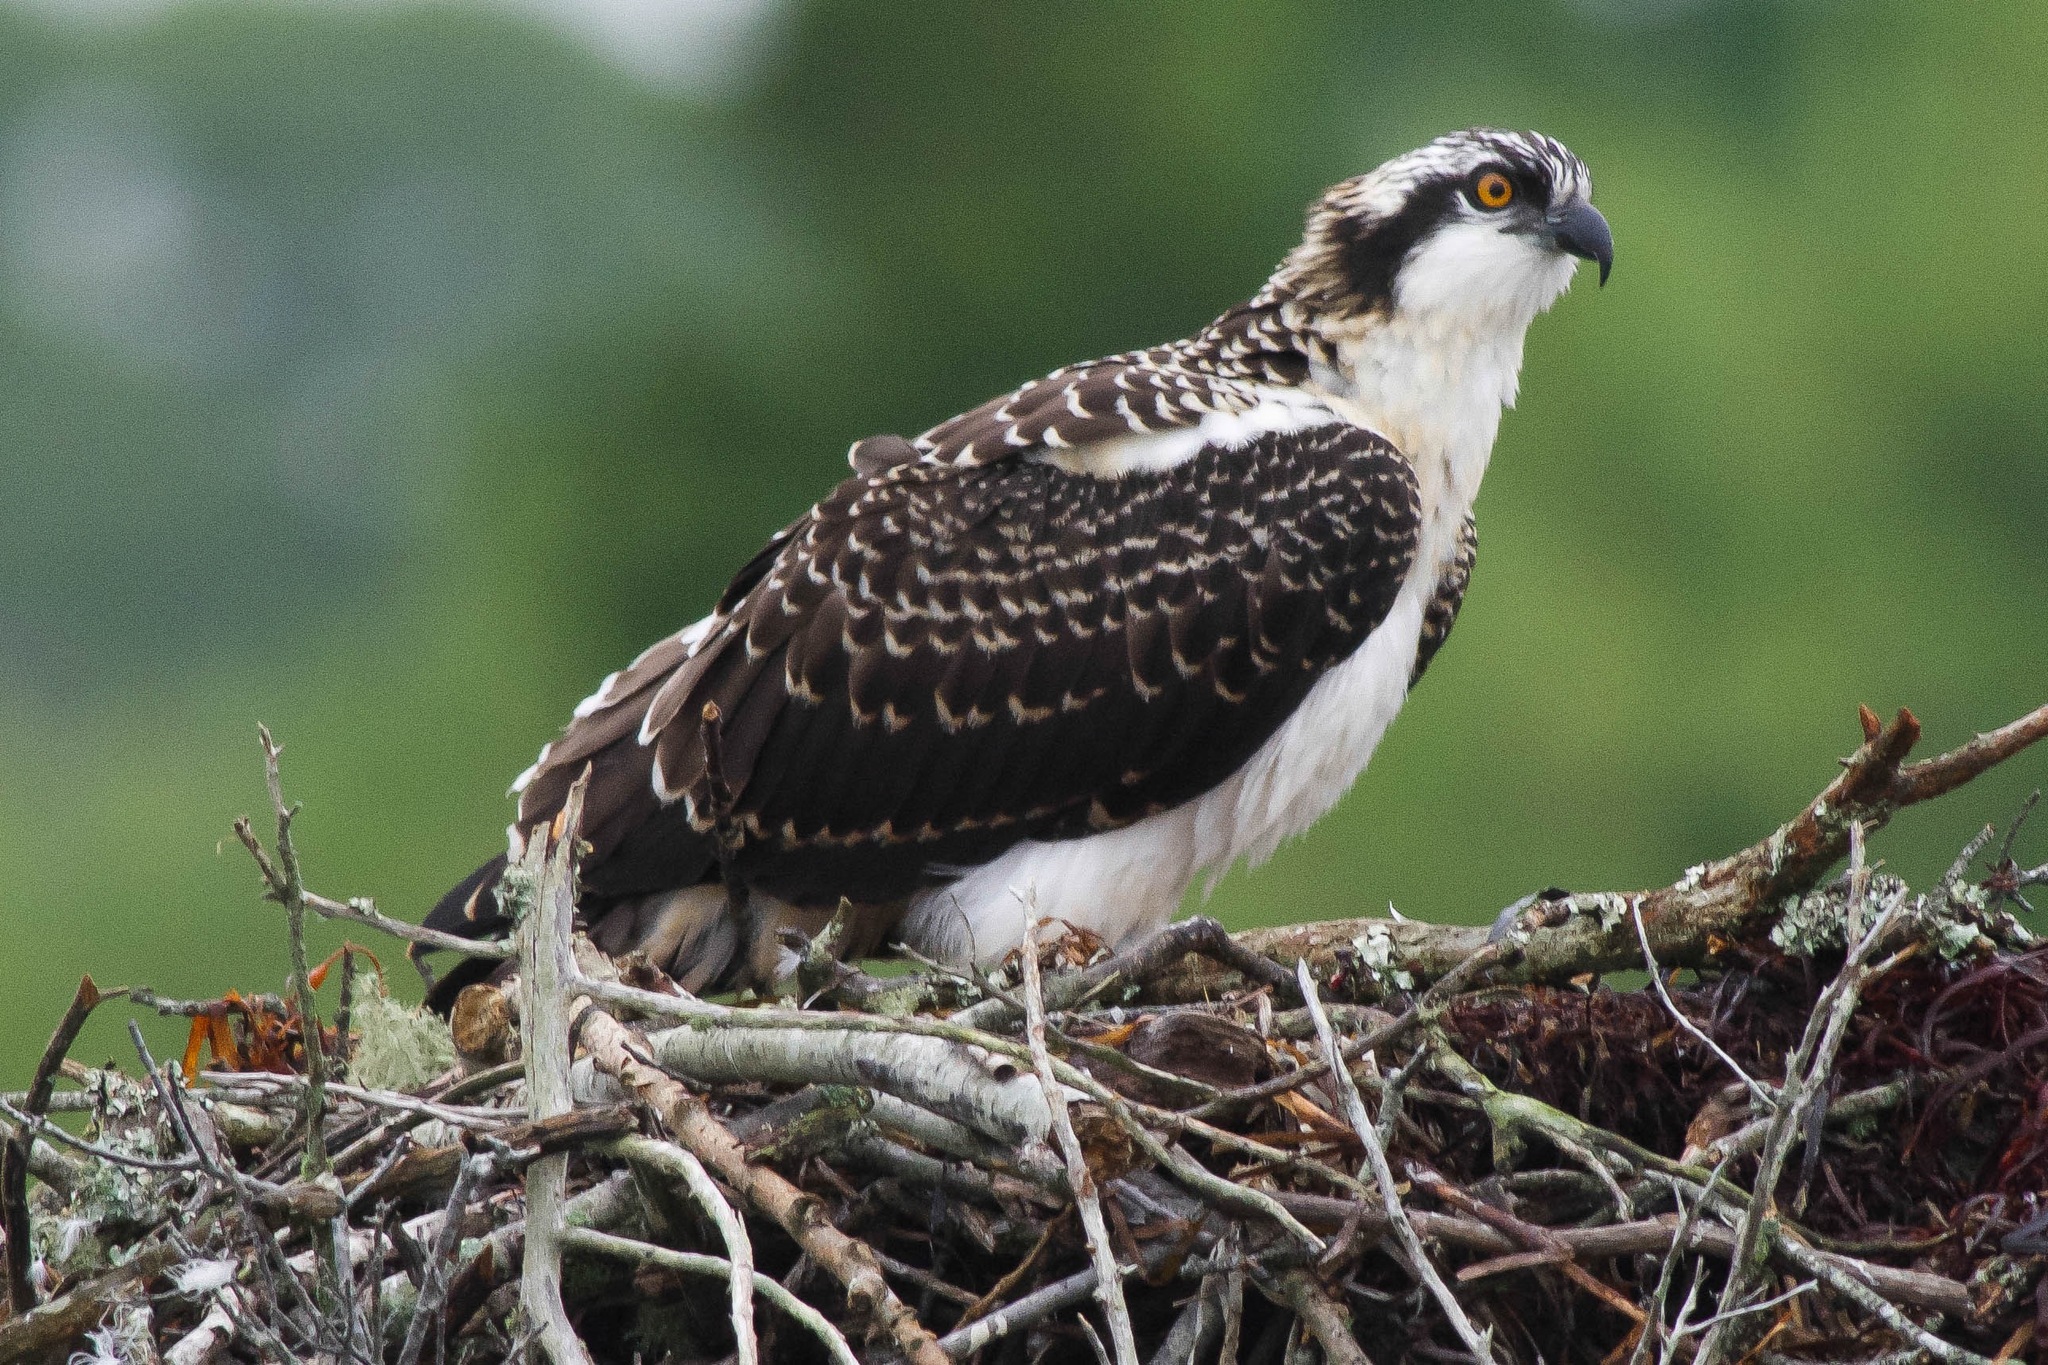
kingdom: Animalia
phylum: Chordata
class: Aves
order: Accipitriformes
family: Pandionidae
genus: Pandion
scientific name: Pandion haliaetus
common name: Osprey
